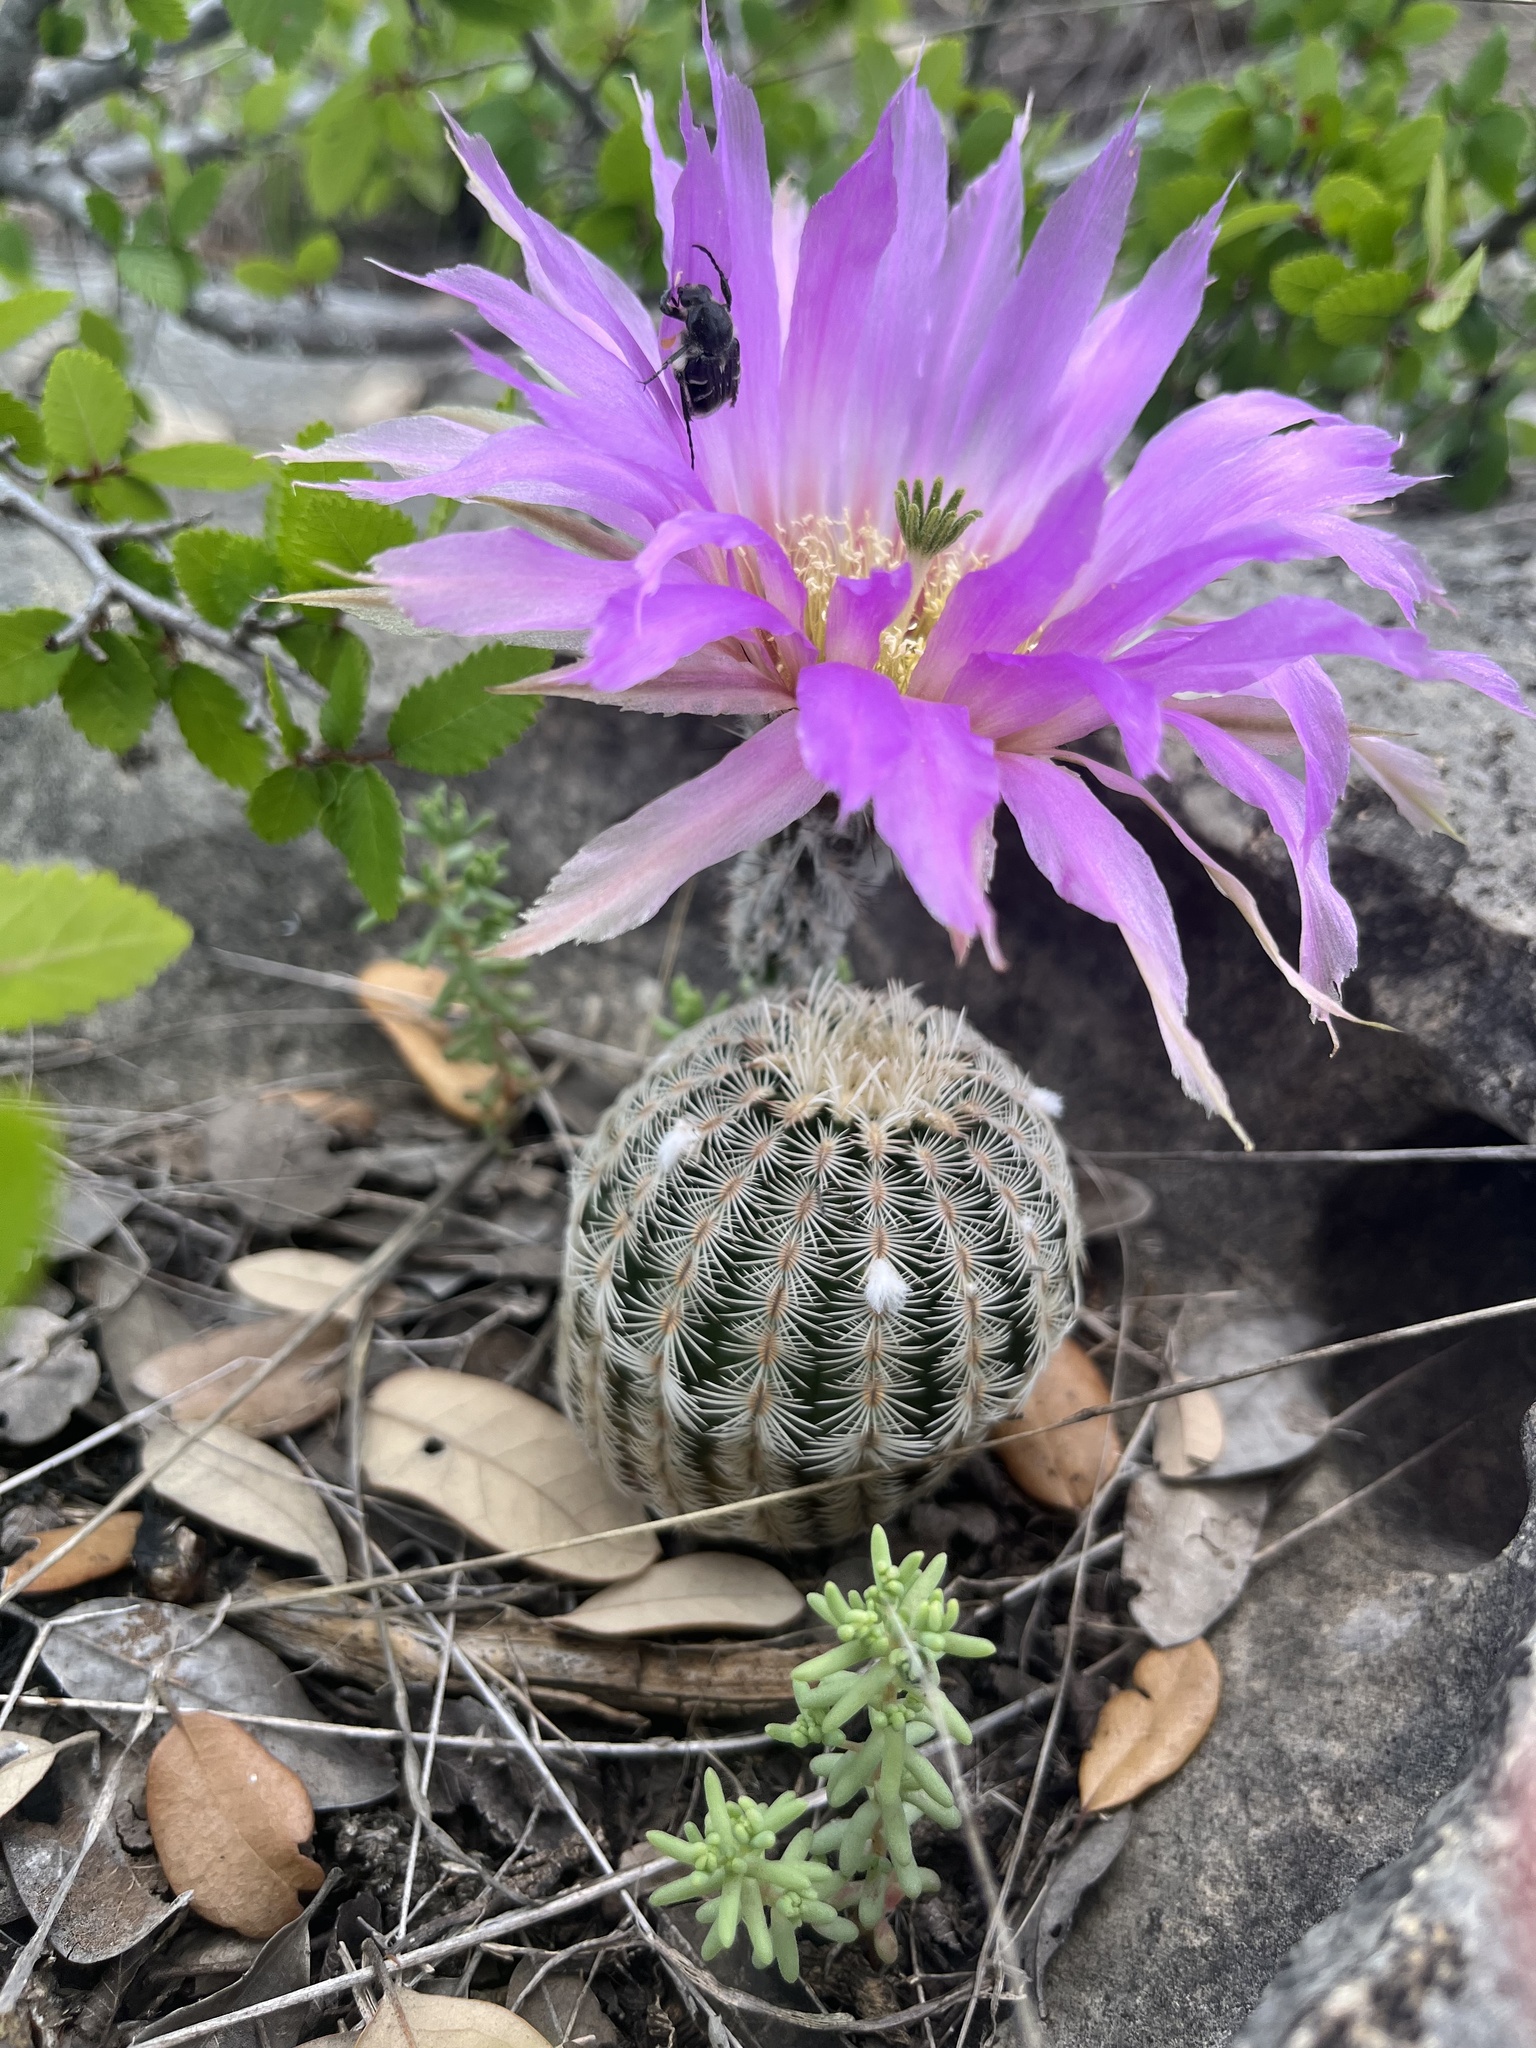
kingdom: Plantae
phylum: Tracheophyta
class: Magnoliopsida
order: Caryophyllales
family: Cactaceae
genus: Echinocereus
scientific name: Echinocereus reichenbachii
